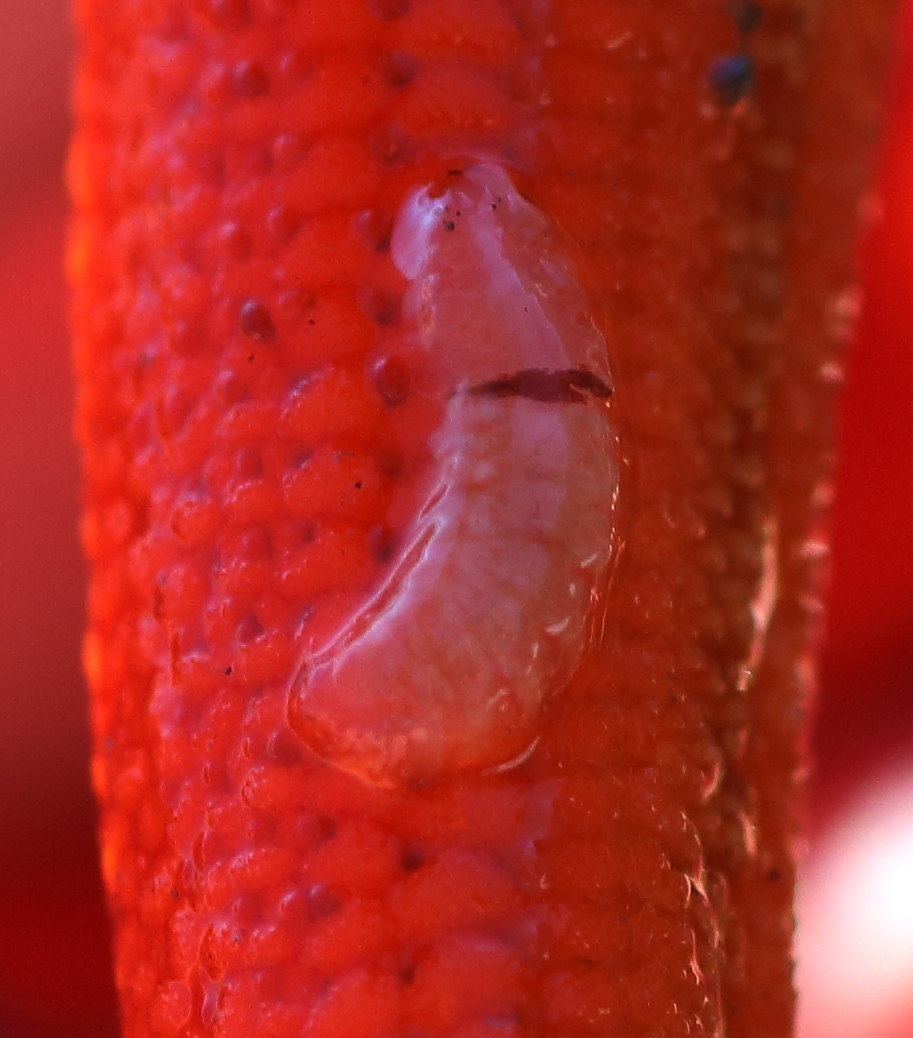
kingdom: Animalia
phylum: Annelida
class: Polychaeta
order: Phyllodocida
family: Polynoidae
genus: Arctonoe
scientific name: Arctonoe vittata
